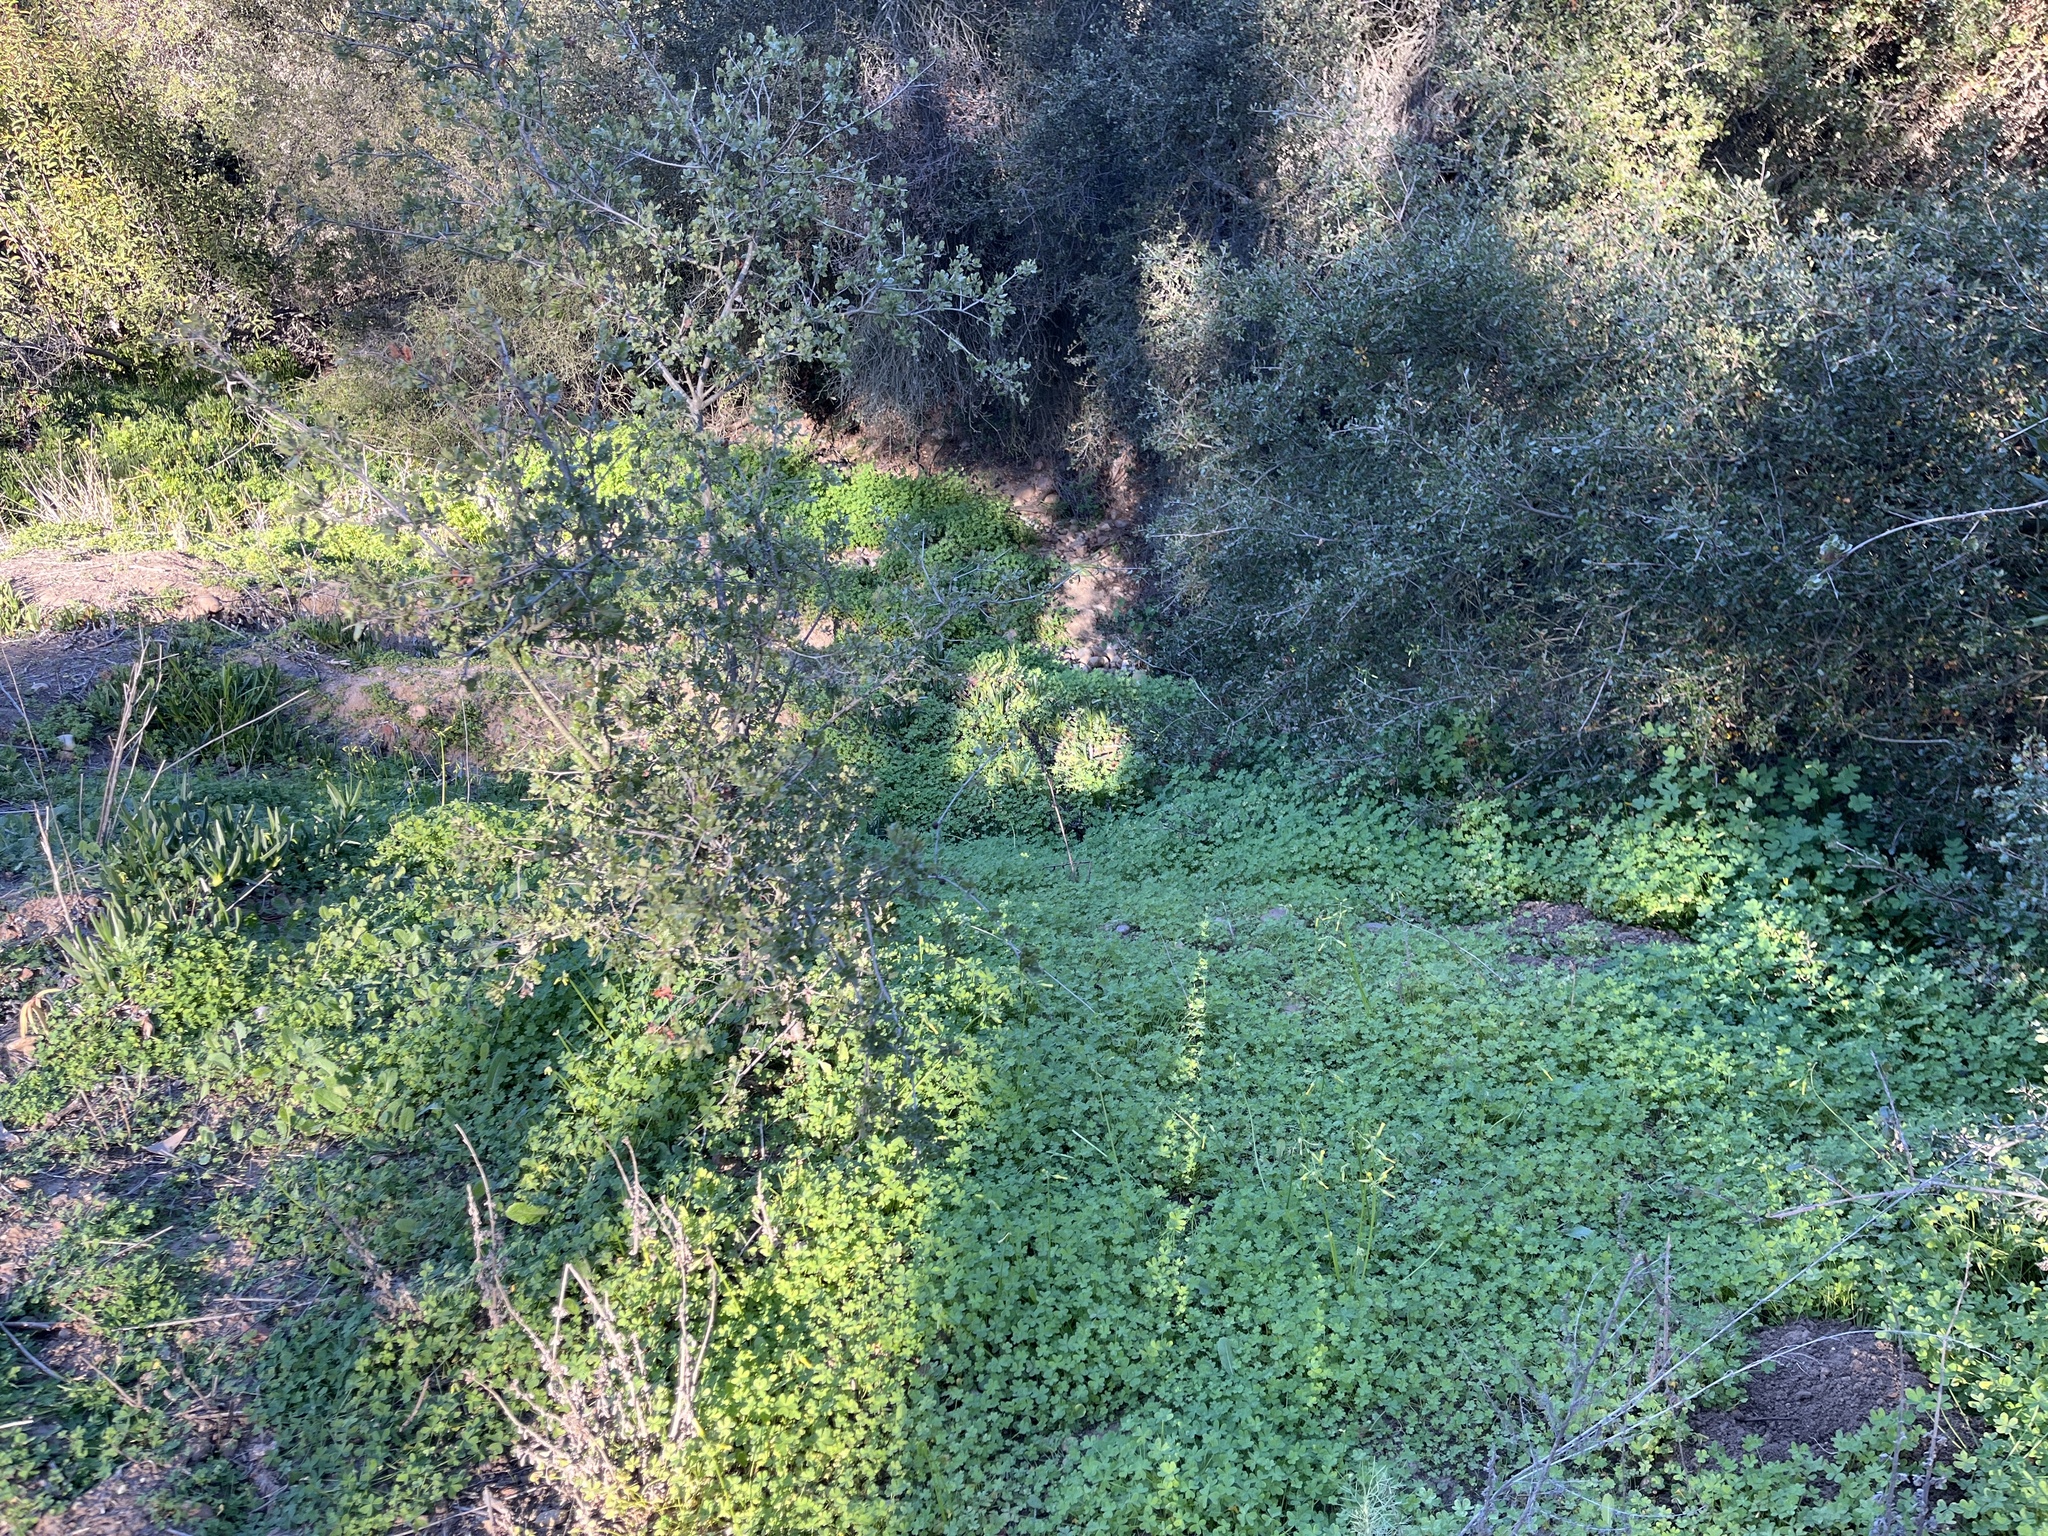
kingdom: Plantae
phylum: Tracheophyta
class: Magnoliopsida
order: Oxalidales
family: Oxalidaceae
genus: Oxalis
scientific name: Oxalis pes-caprae
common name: Bermuda-buttercup
